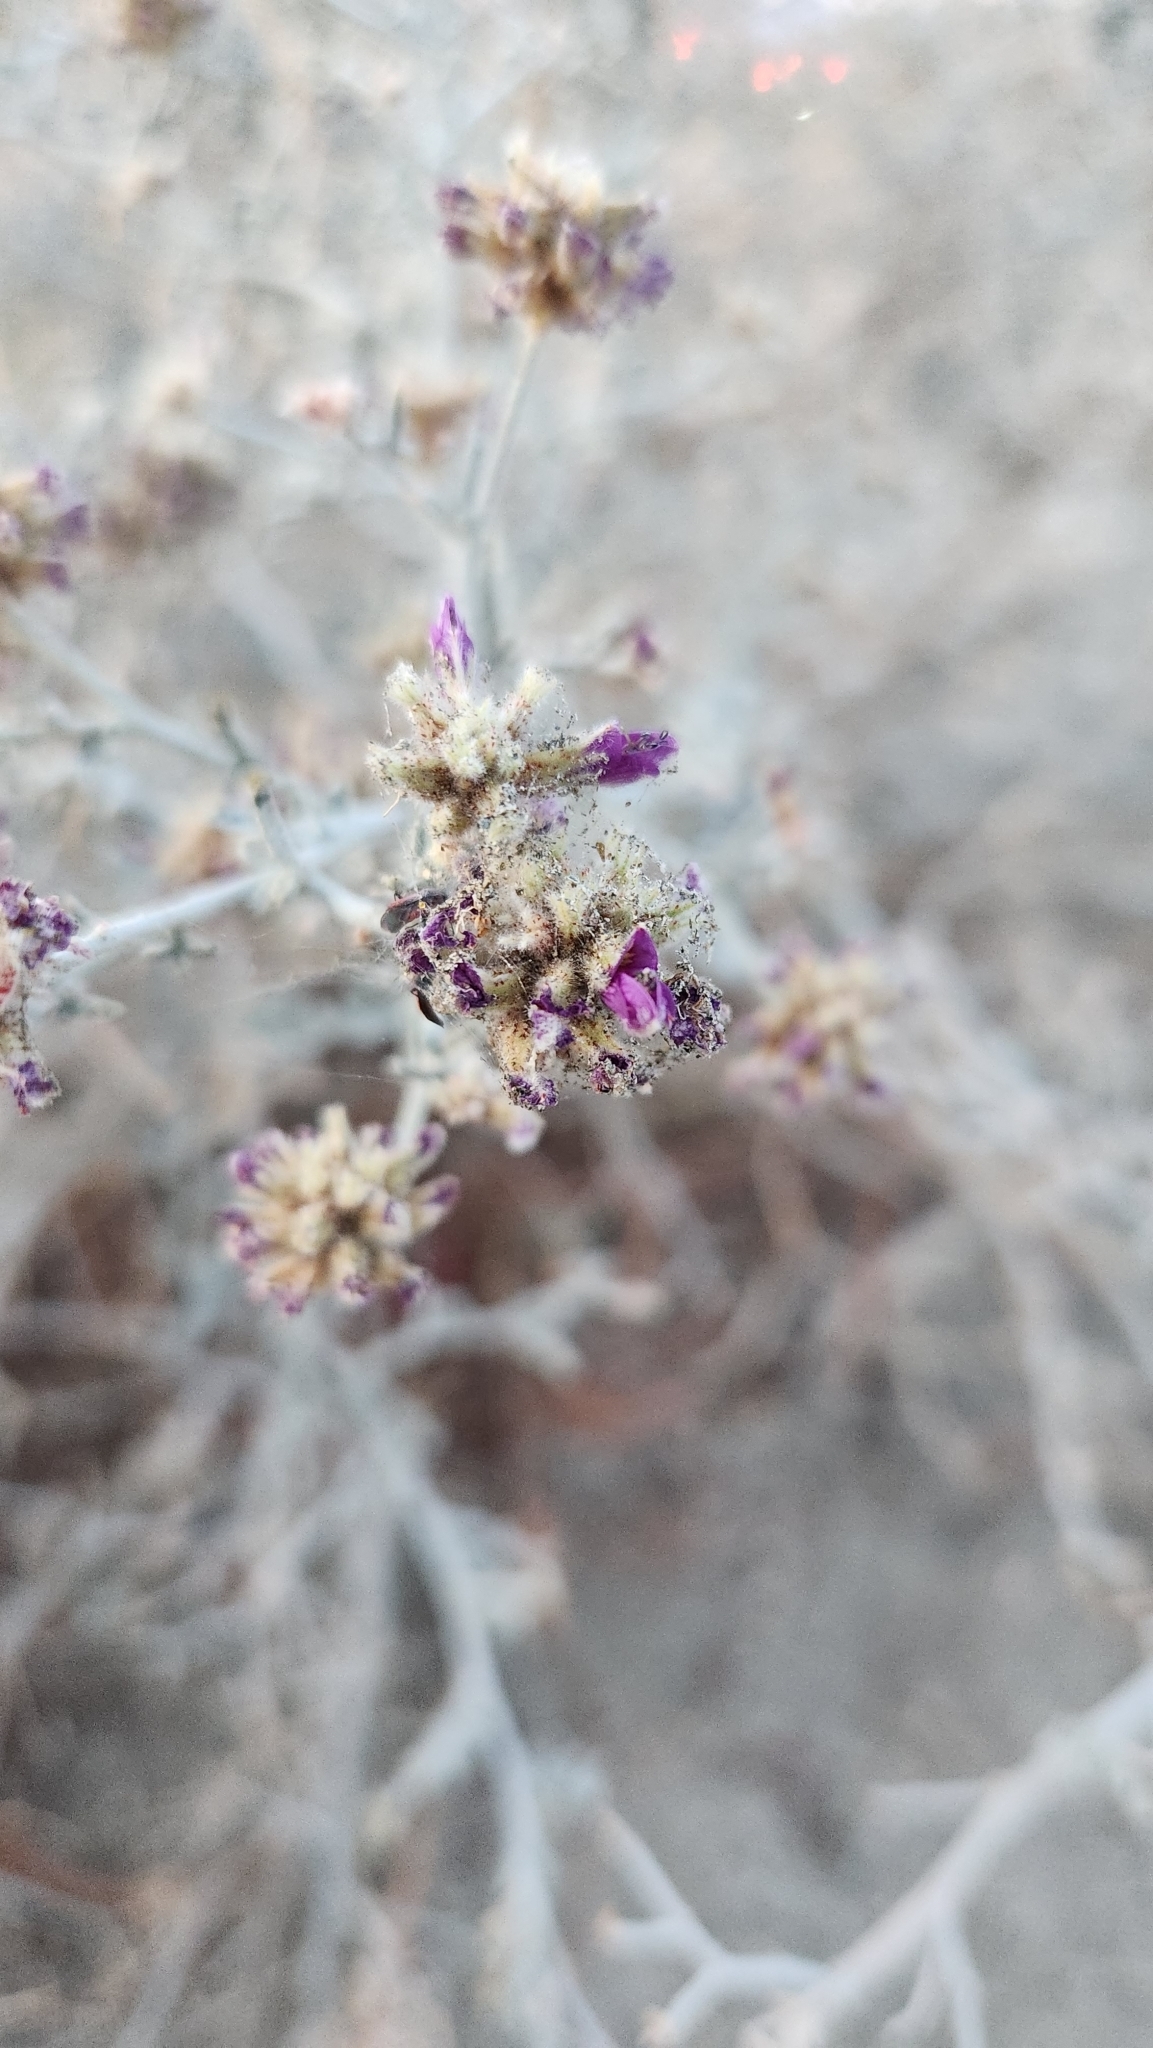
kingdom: Plantae
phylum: Tracheophyta
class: Magnoliopsida
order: Fabales
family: Fabaceae
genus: Psorothamnus
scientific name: Psorothamnus emoryi
